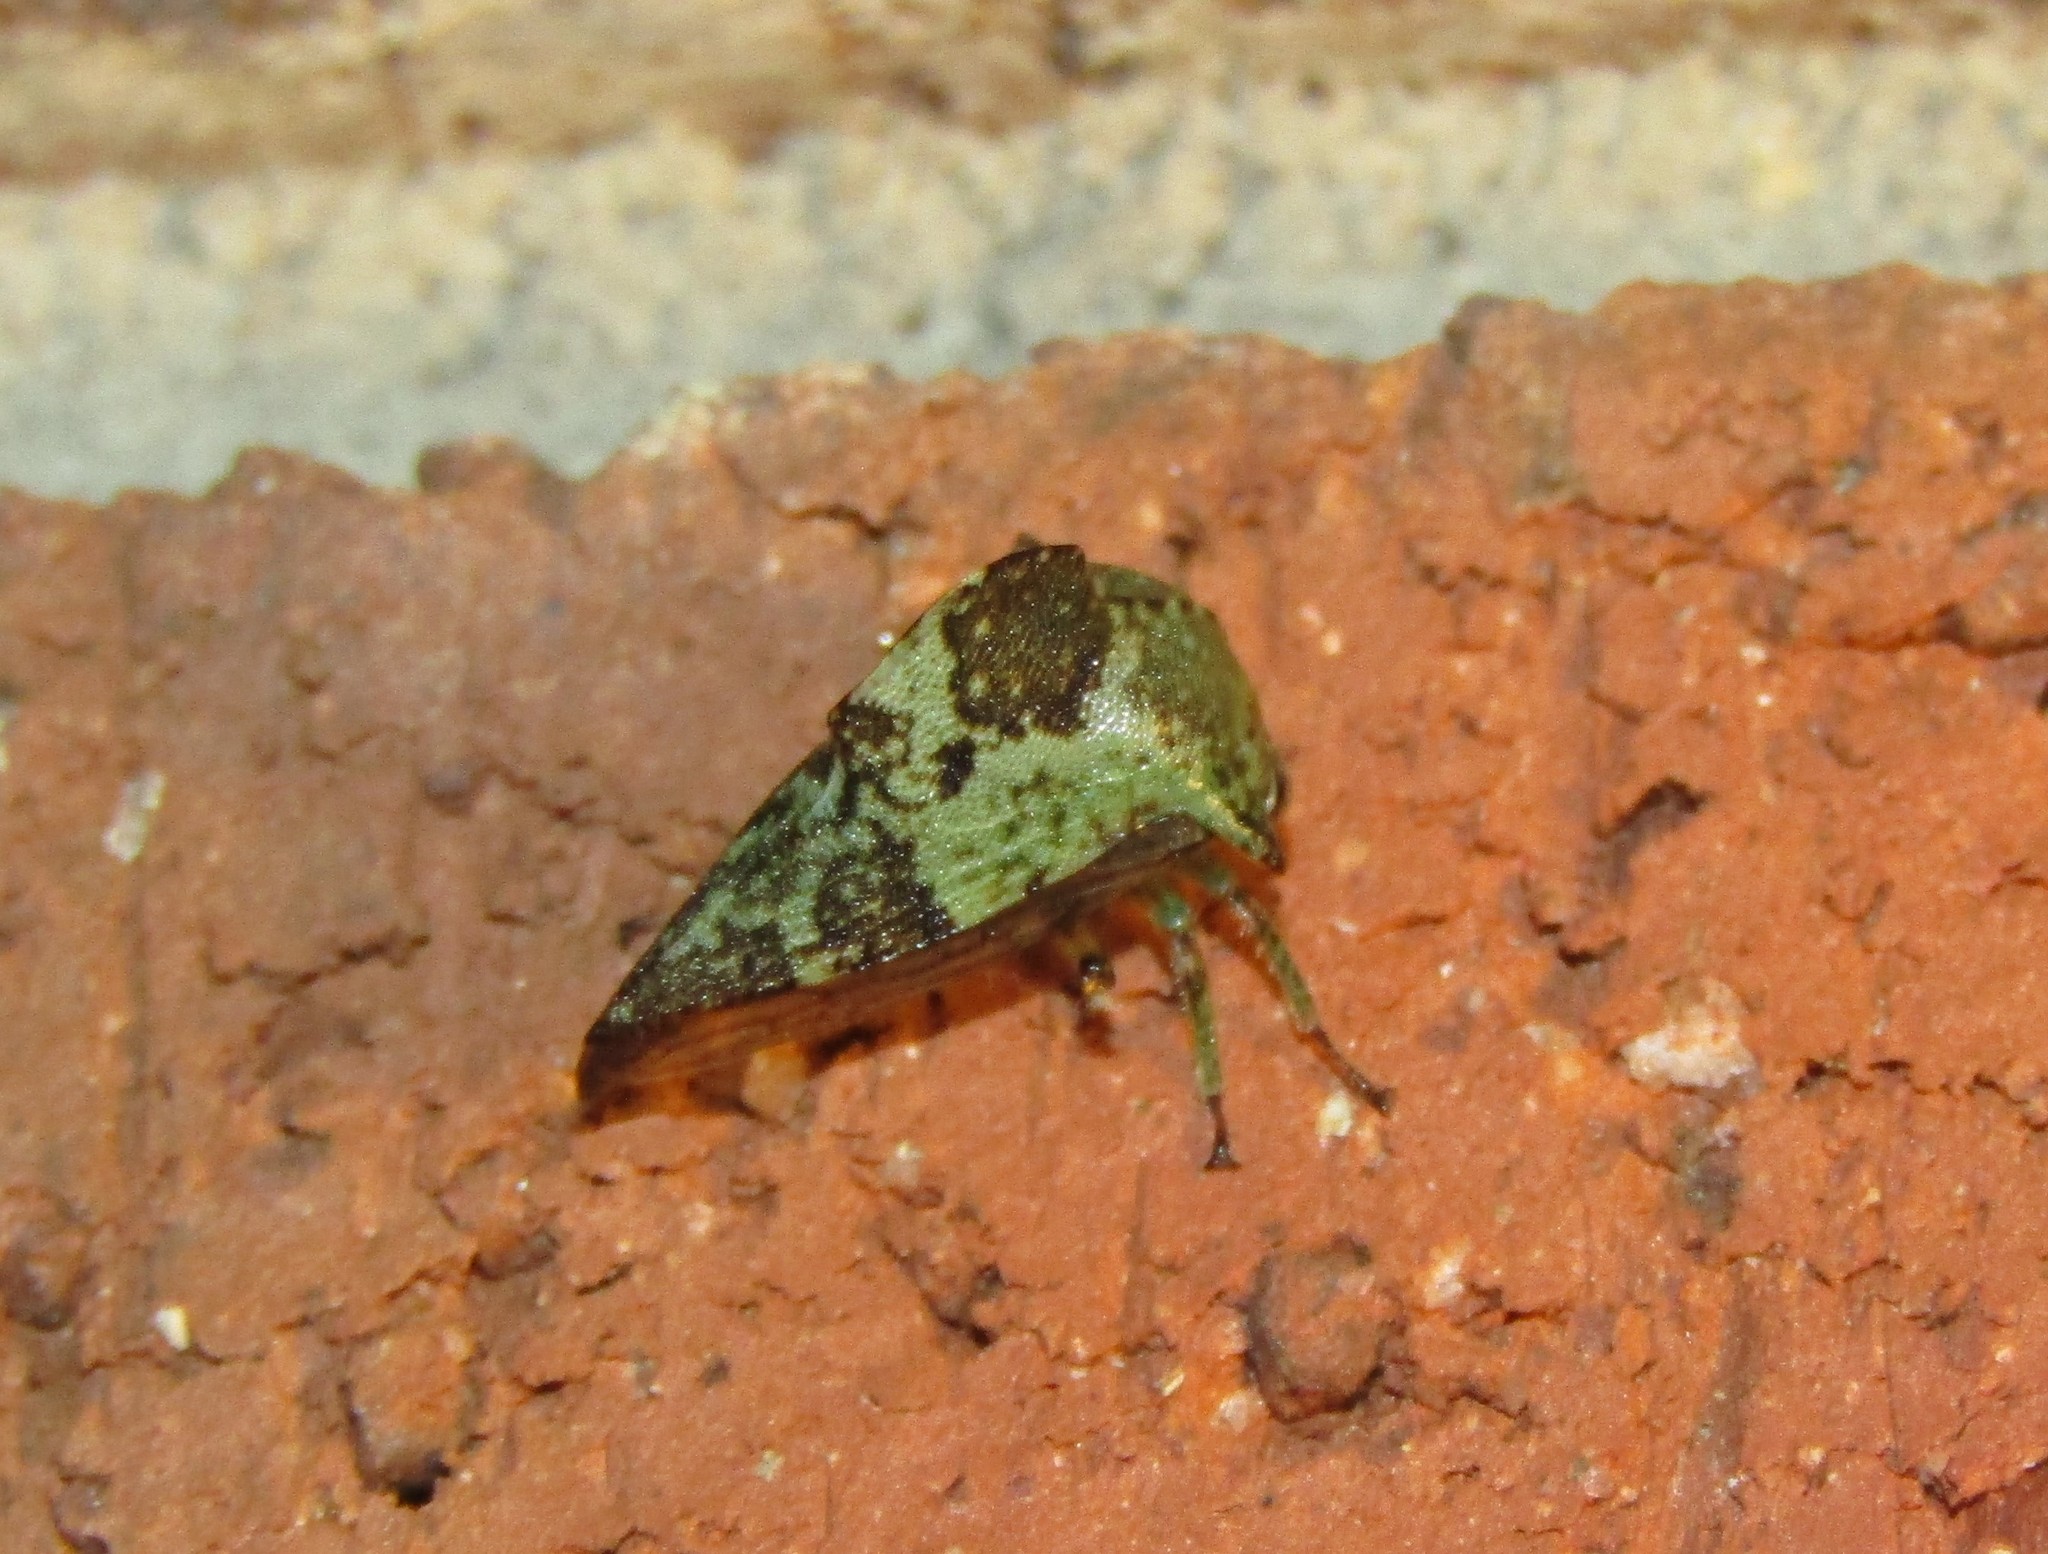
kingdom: Animalia
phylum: Arthropoda
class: Insecta
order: Hemiptera
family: Membracidae
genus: Telamona
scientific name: Telamona concava
